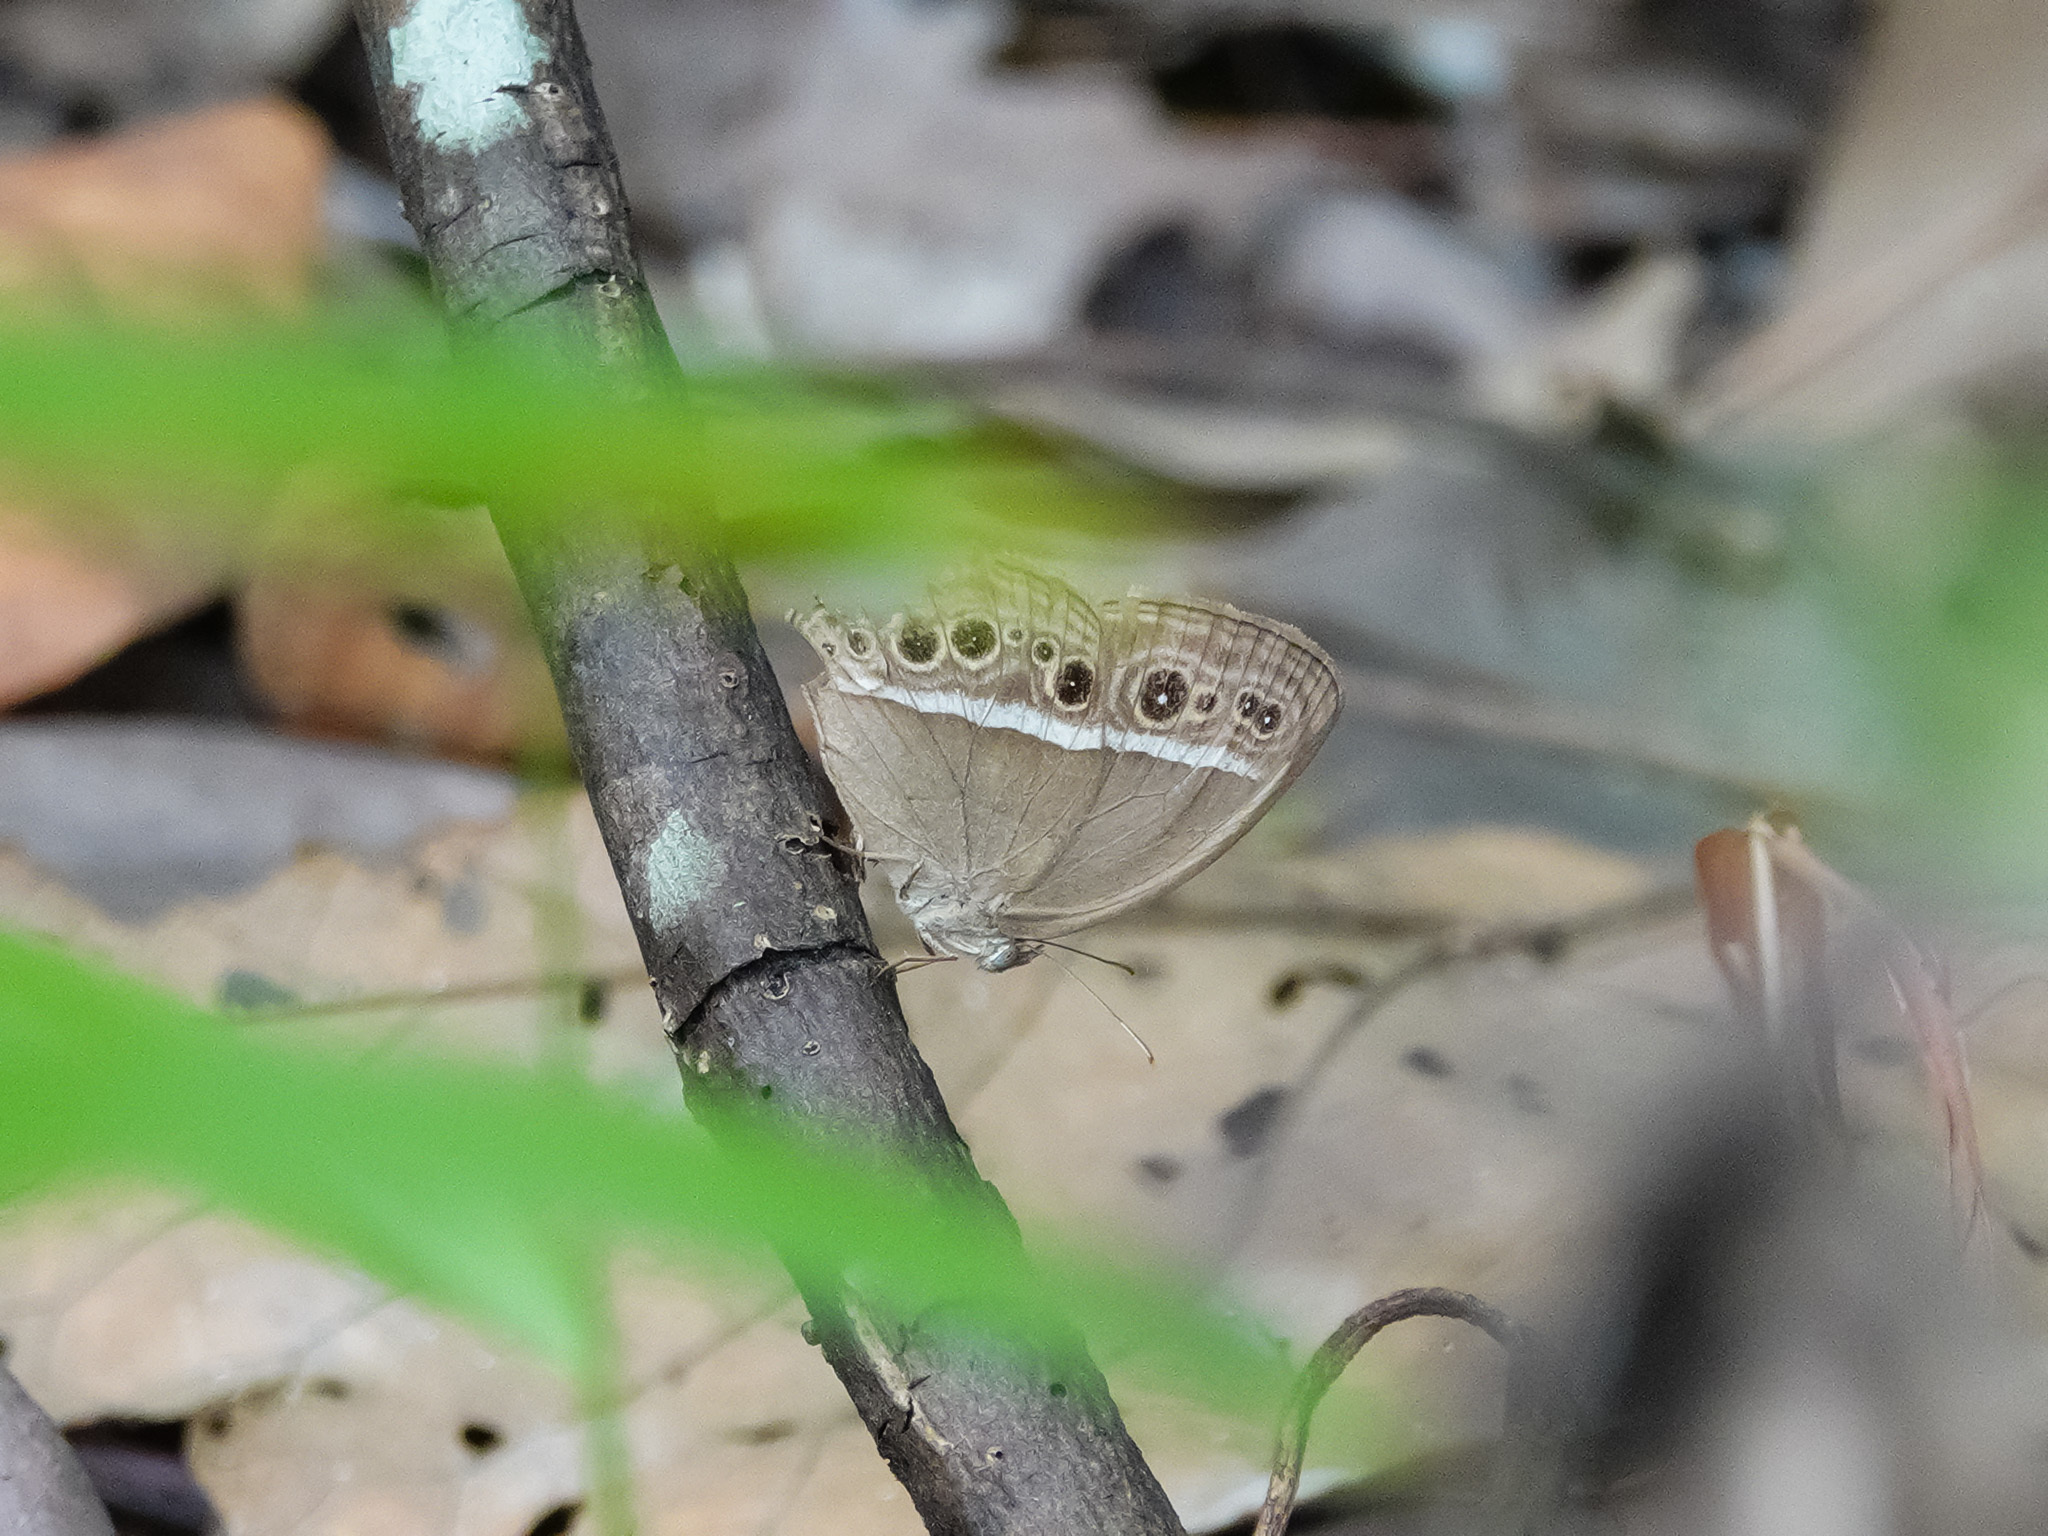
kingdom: Animalia
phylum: Arthropoda
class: Insecta
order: Lepidoptera
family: Nymphalidae
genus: Mycalesis
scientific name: Mycalesis mineus
